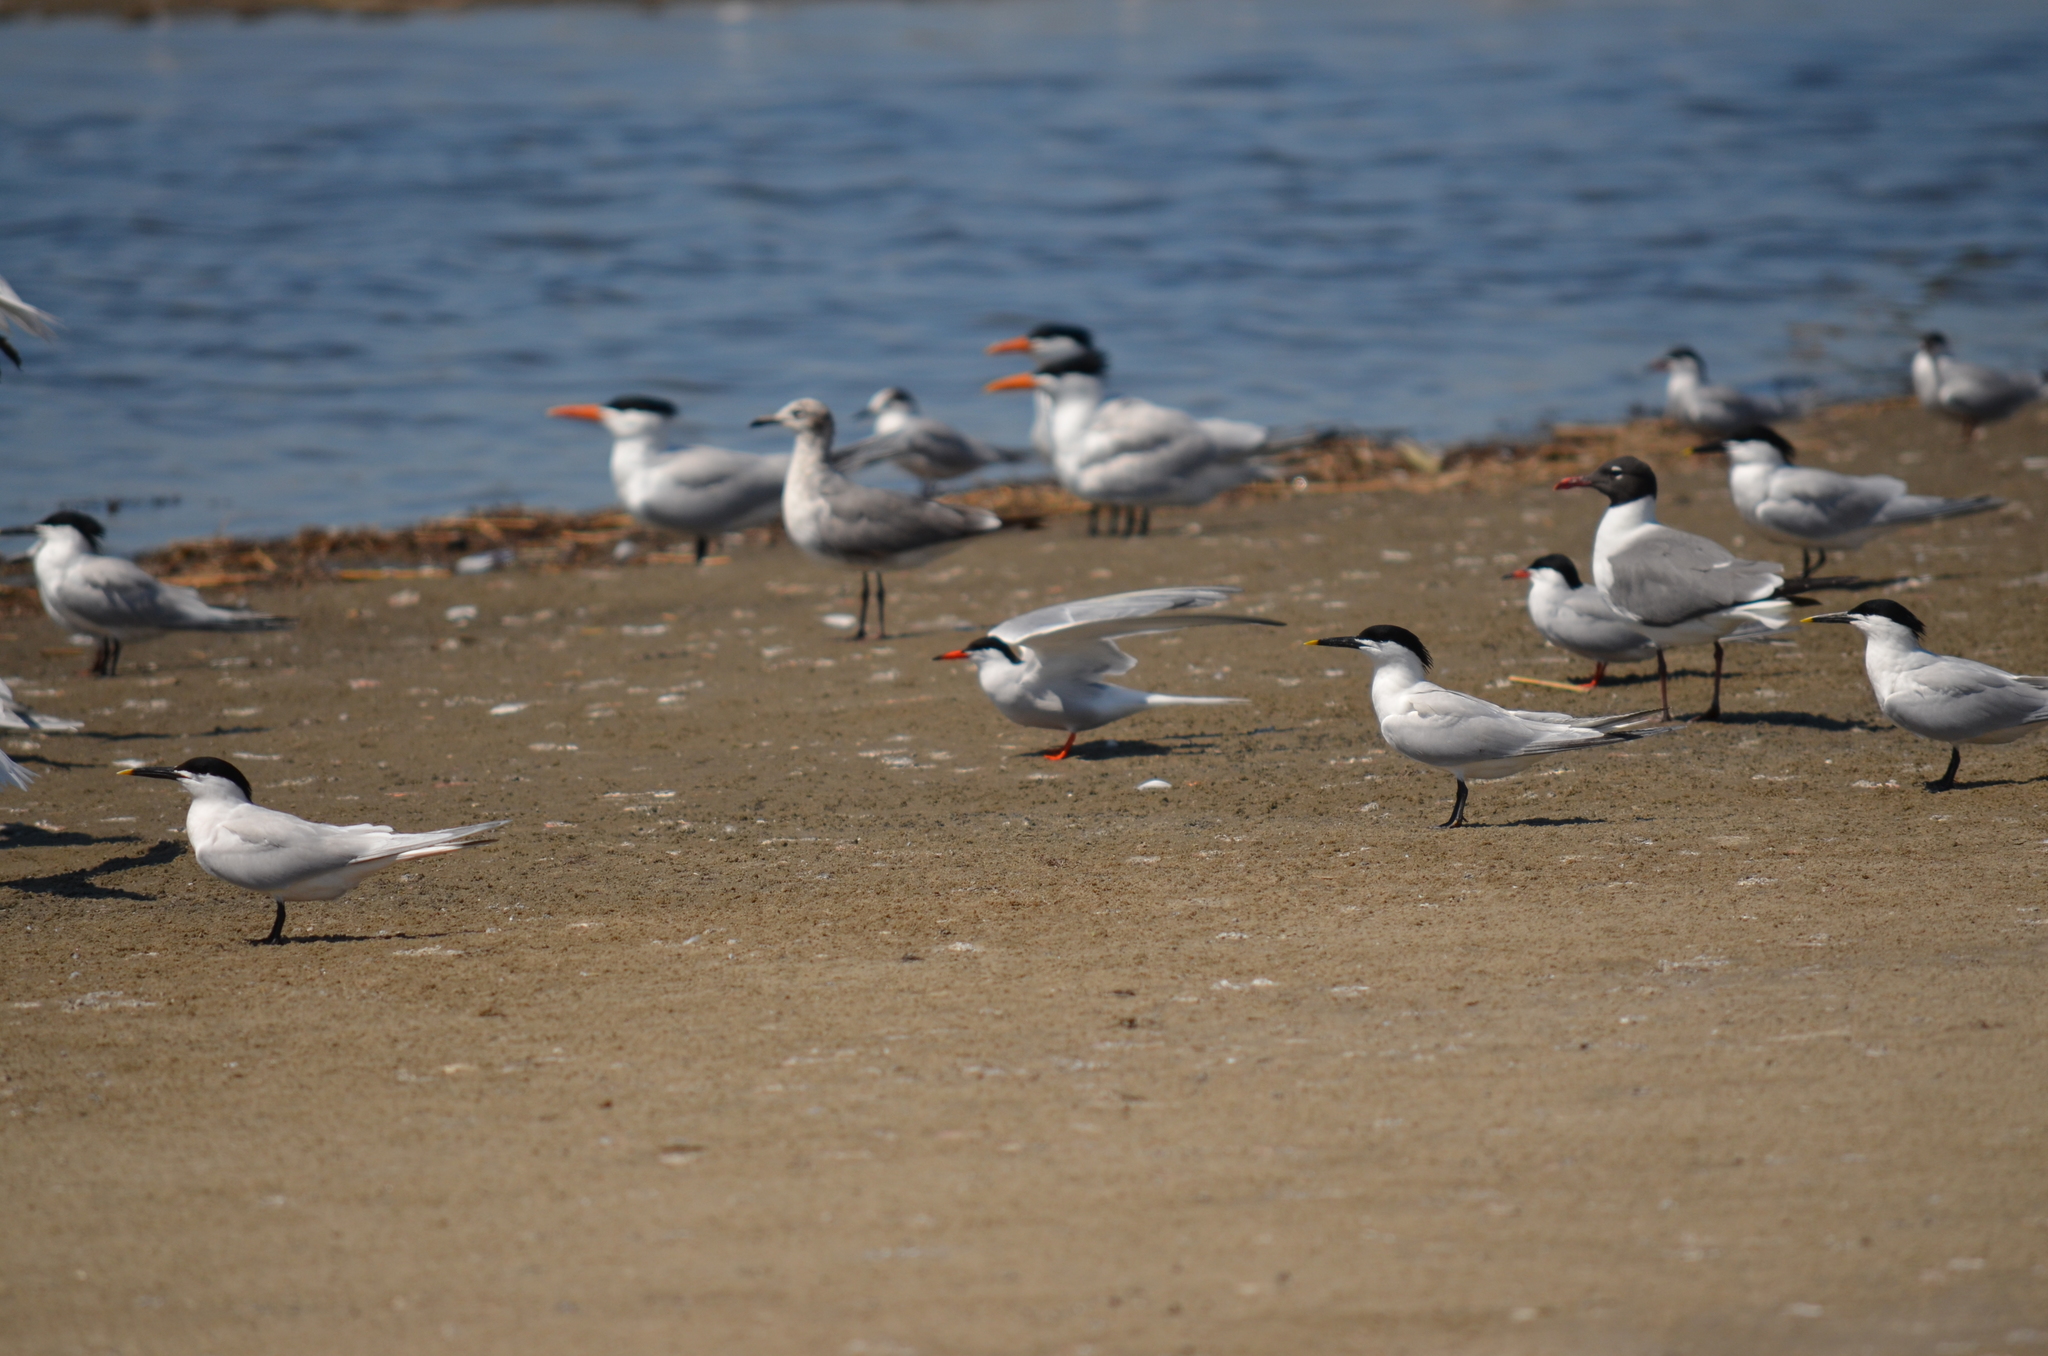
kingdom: Animalia
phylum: Chordata
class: Aves
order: Charadriiformes
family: Laridae
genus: Sterna
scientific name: Sterna hirundo
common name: Common tern
